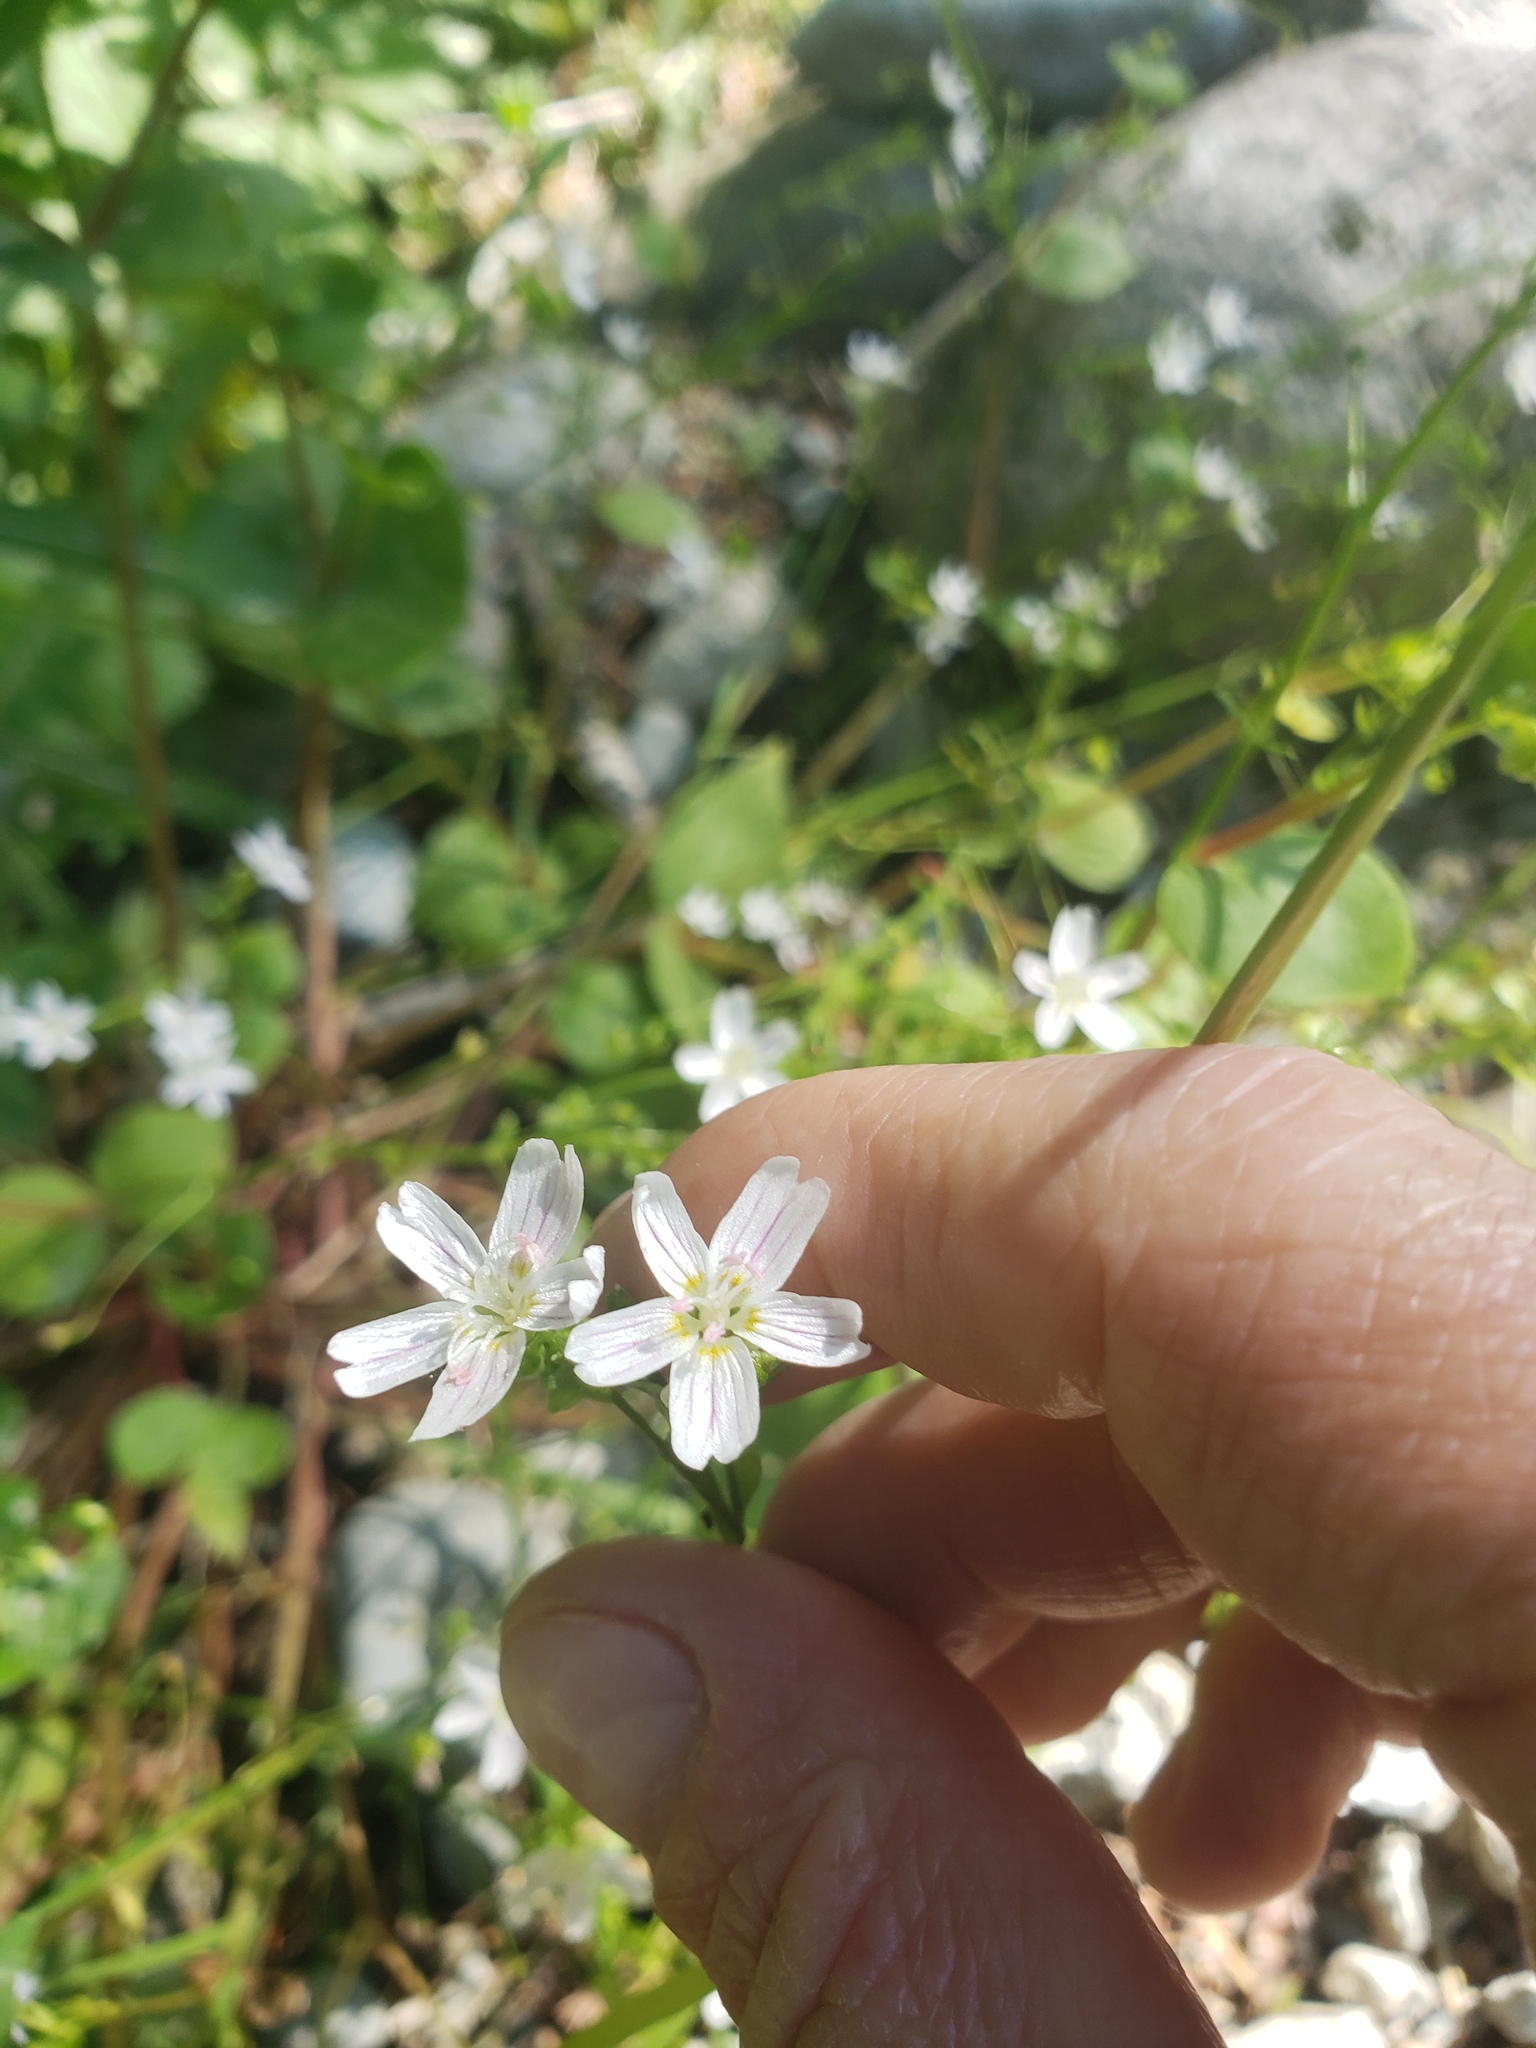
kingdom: Plantae
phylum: Tracheophyta
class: Magnoliopsida
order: Caryophyllales
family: Montiaceae
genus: Claytonia
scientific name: Claytonia sibirica
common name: Pink purslane
